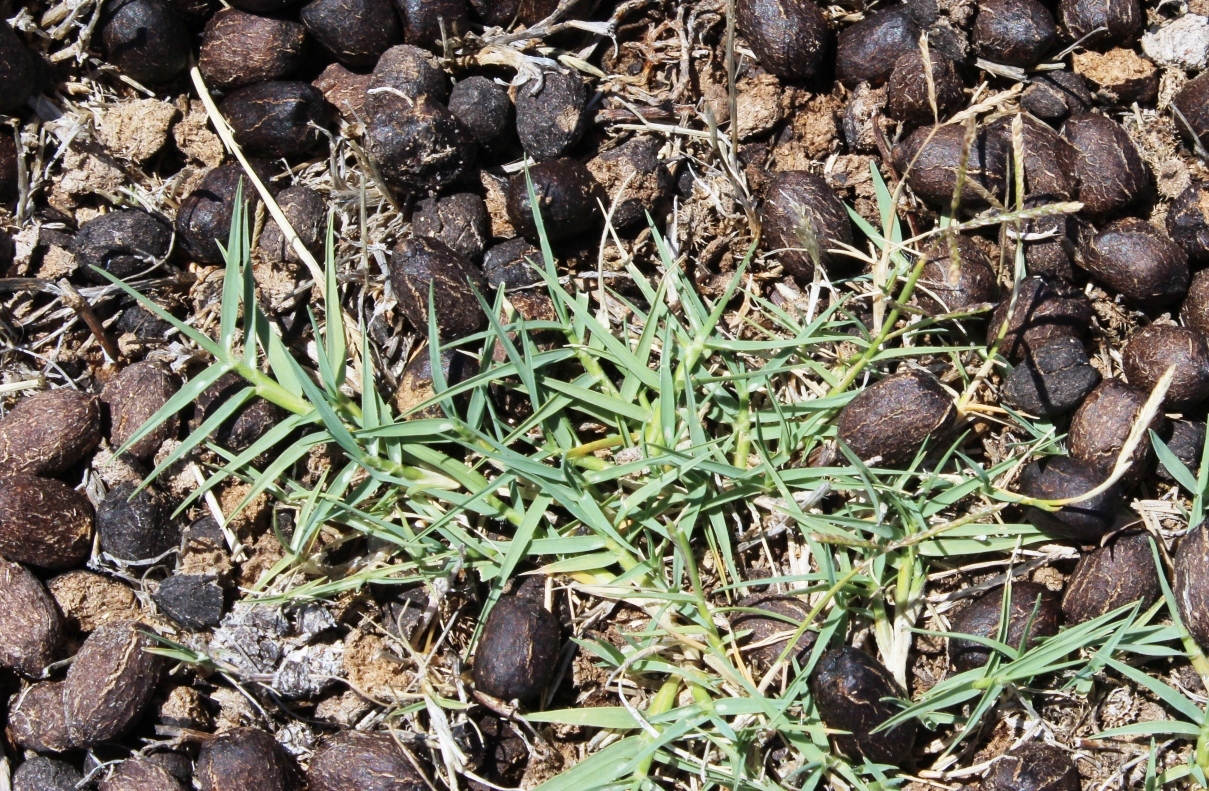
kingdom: Plantae
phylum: Tracheophyta
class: Liliopsida
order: Poales
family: Poaceae
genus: Cynodon
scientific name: Cynodon dactylon
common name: Bermuda grass
